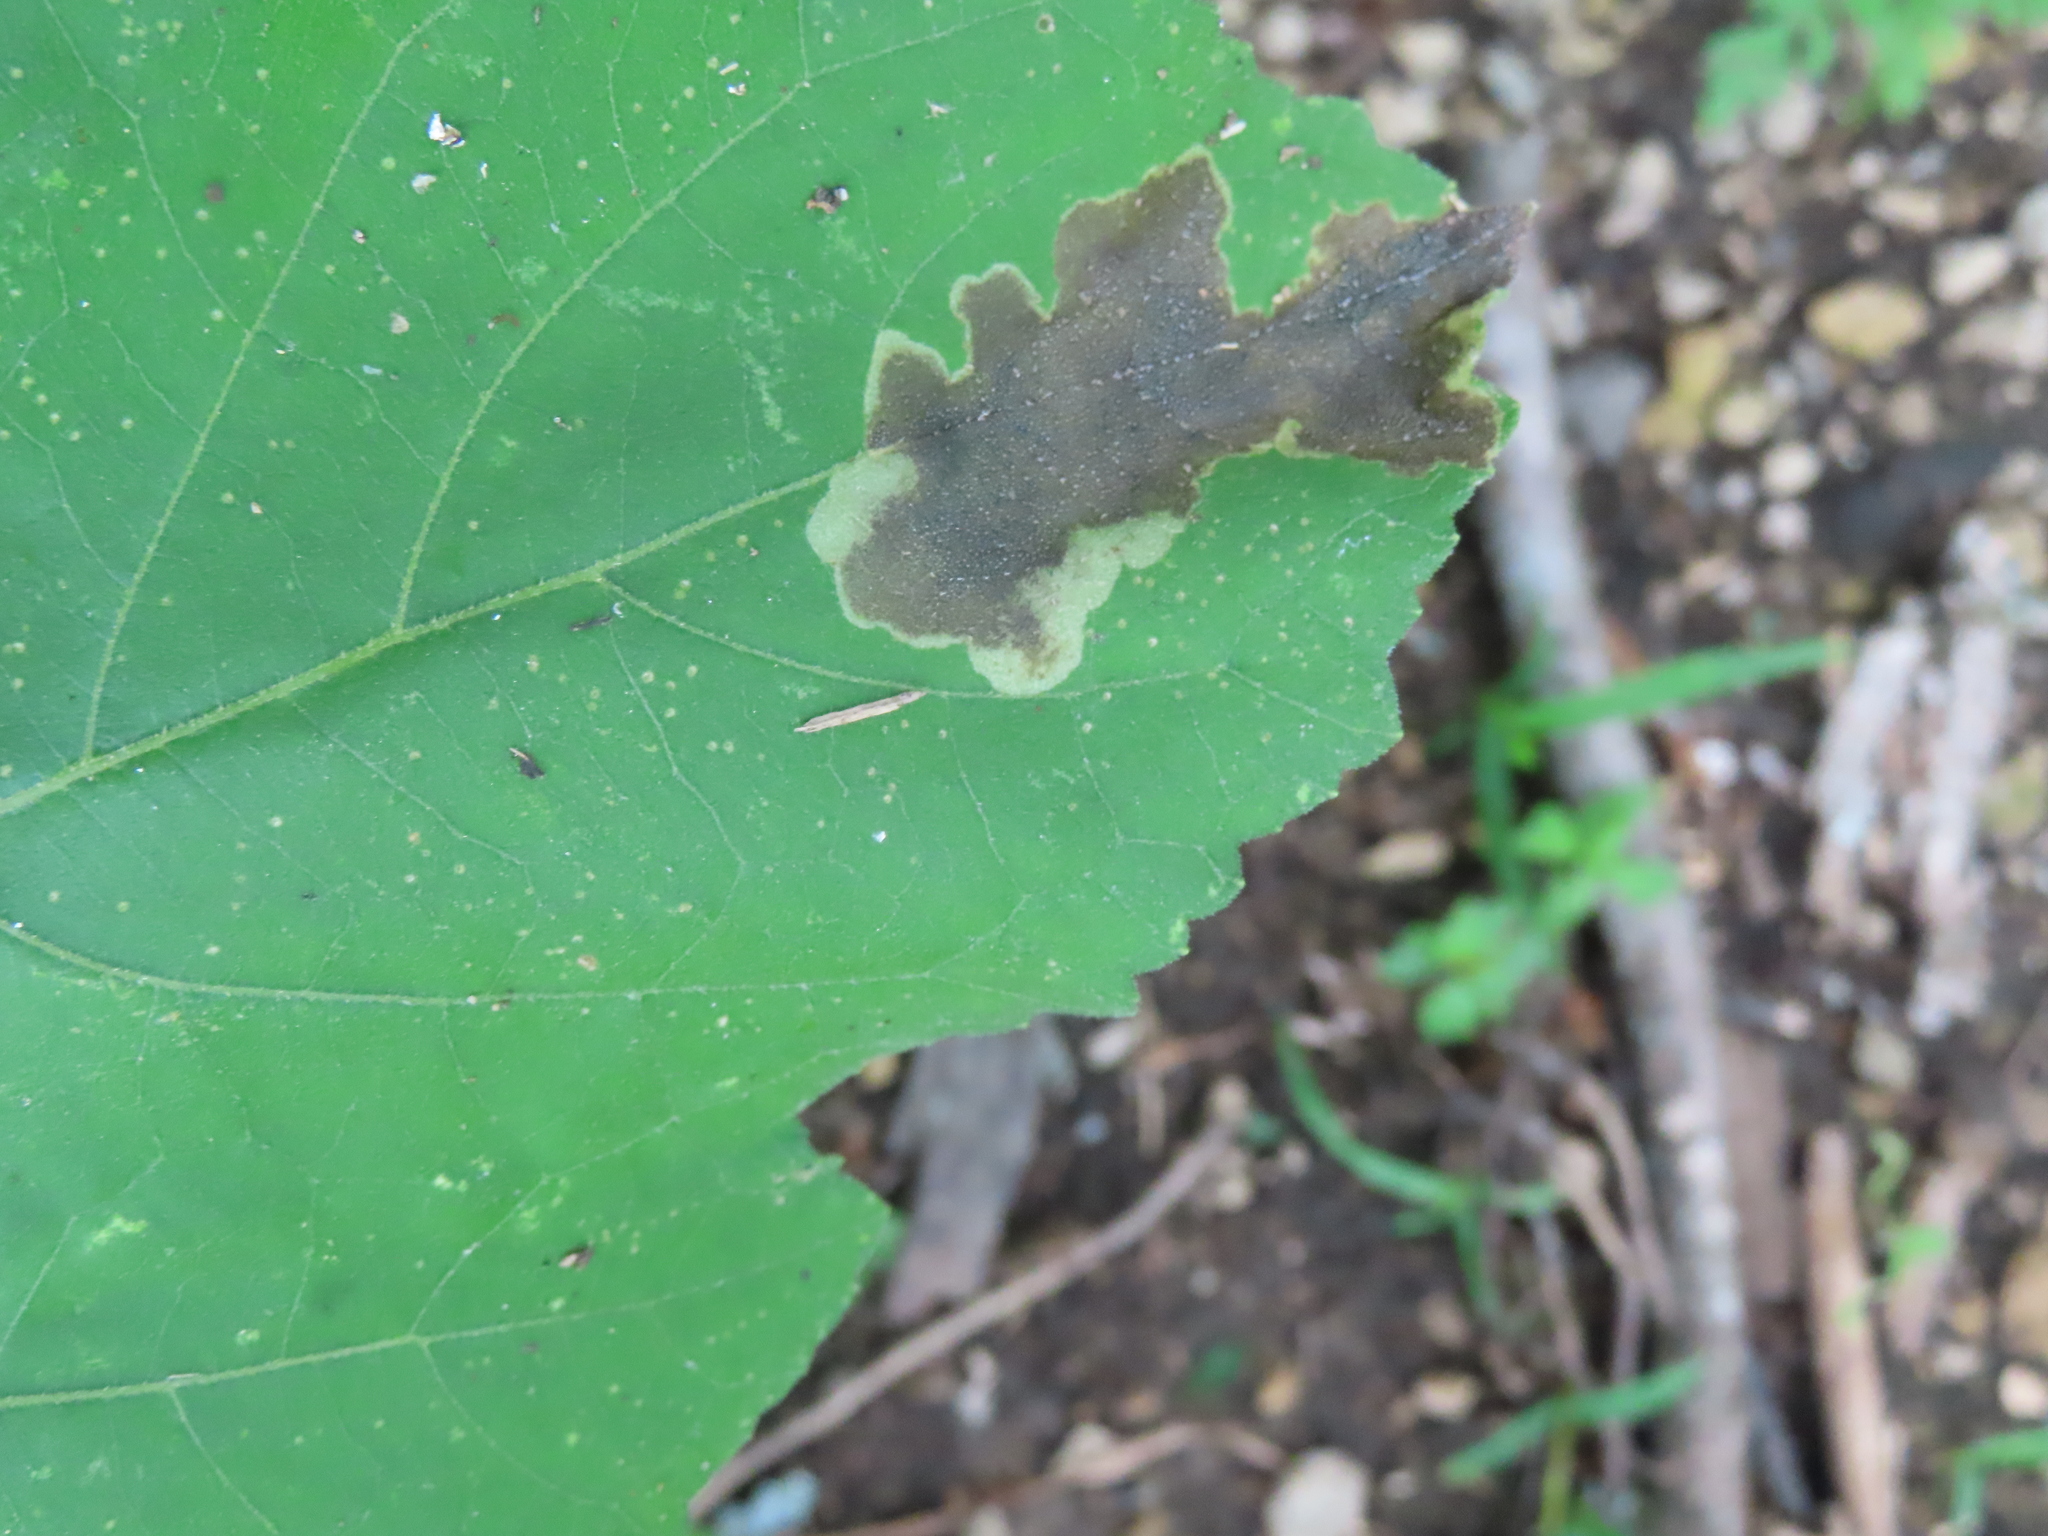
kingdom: Animalia
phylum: Arthropoda
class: Insecta
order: Diptera
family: Agromyzidae
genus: Calycomyza
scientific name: Calycomyza platyptera
